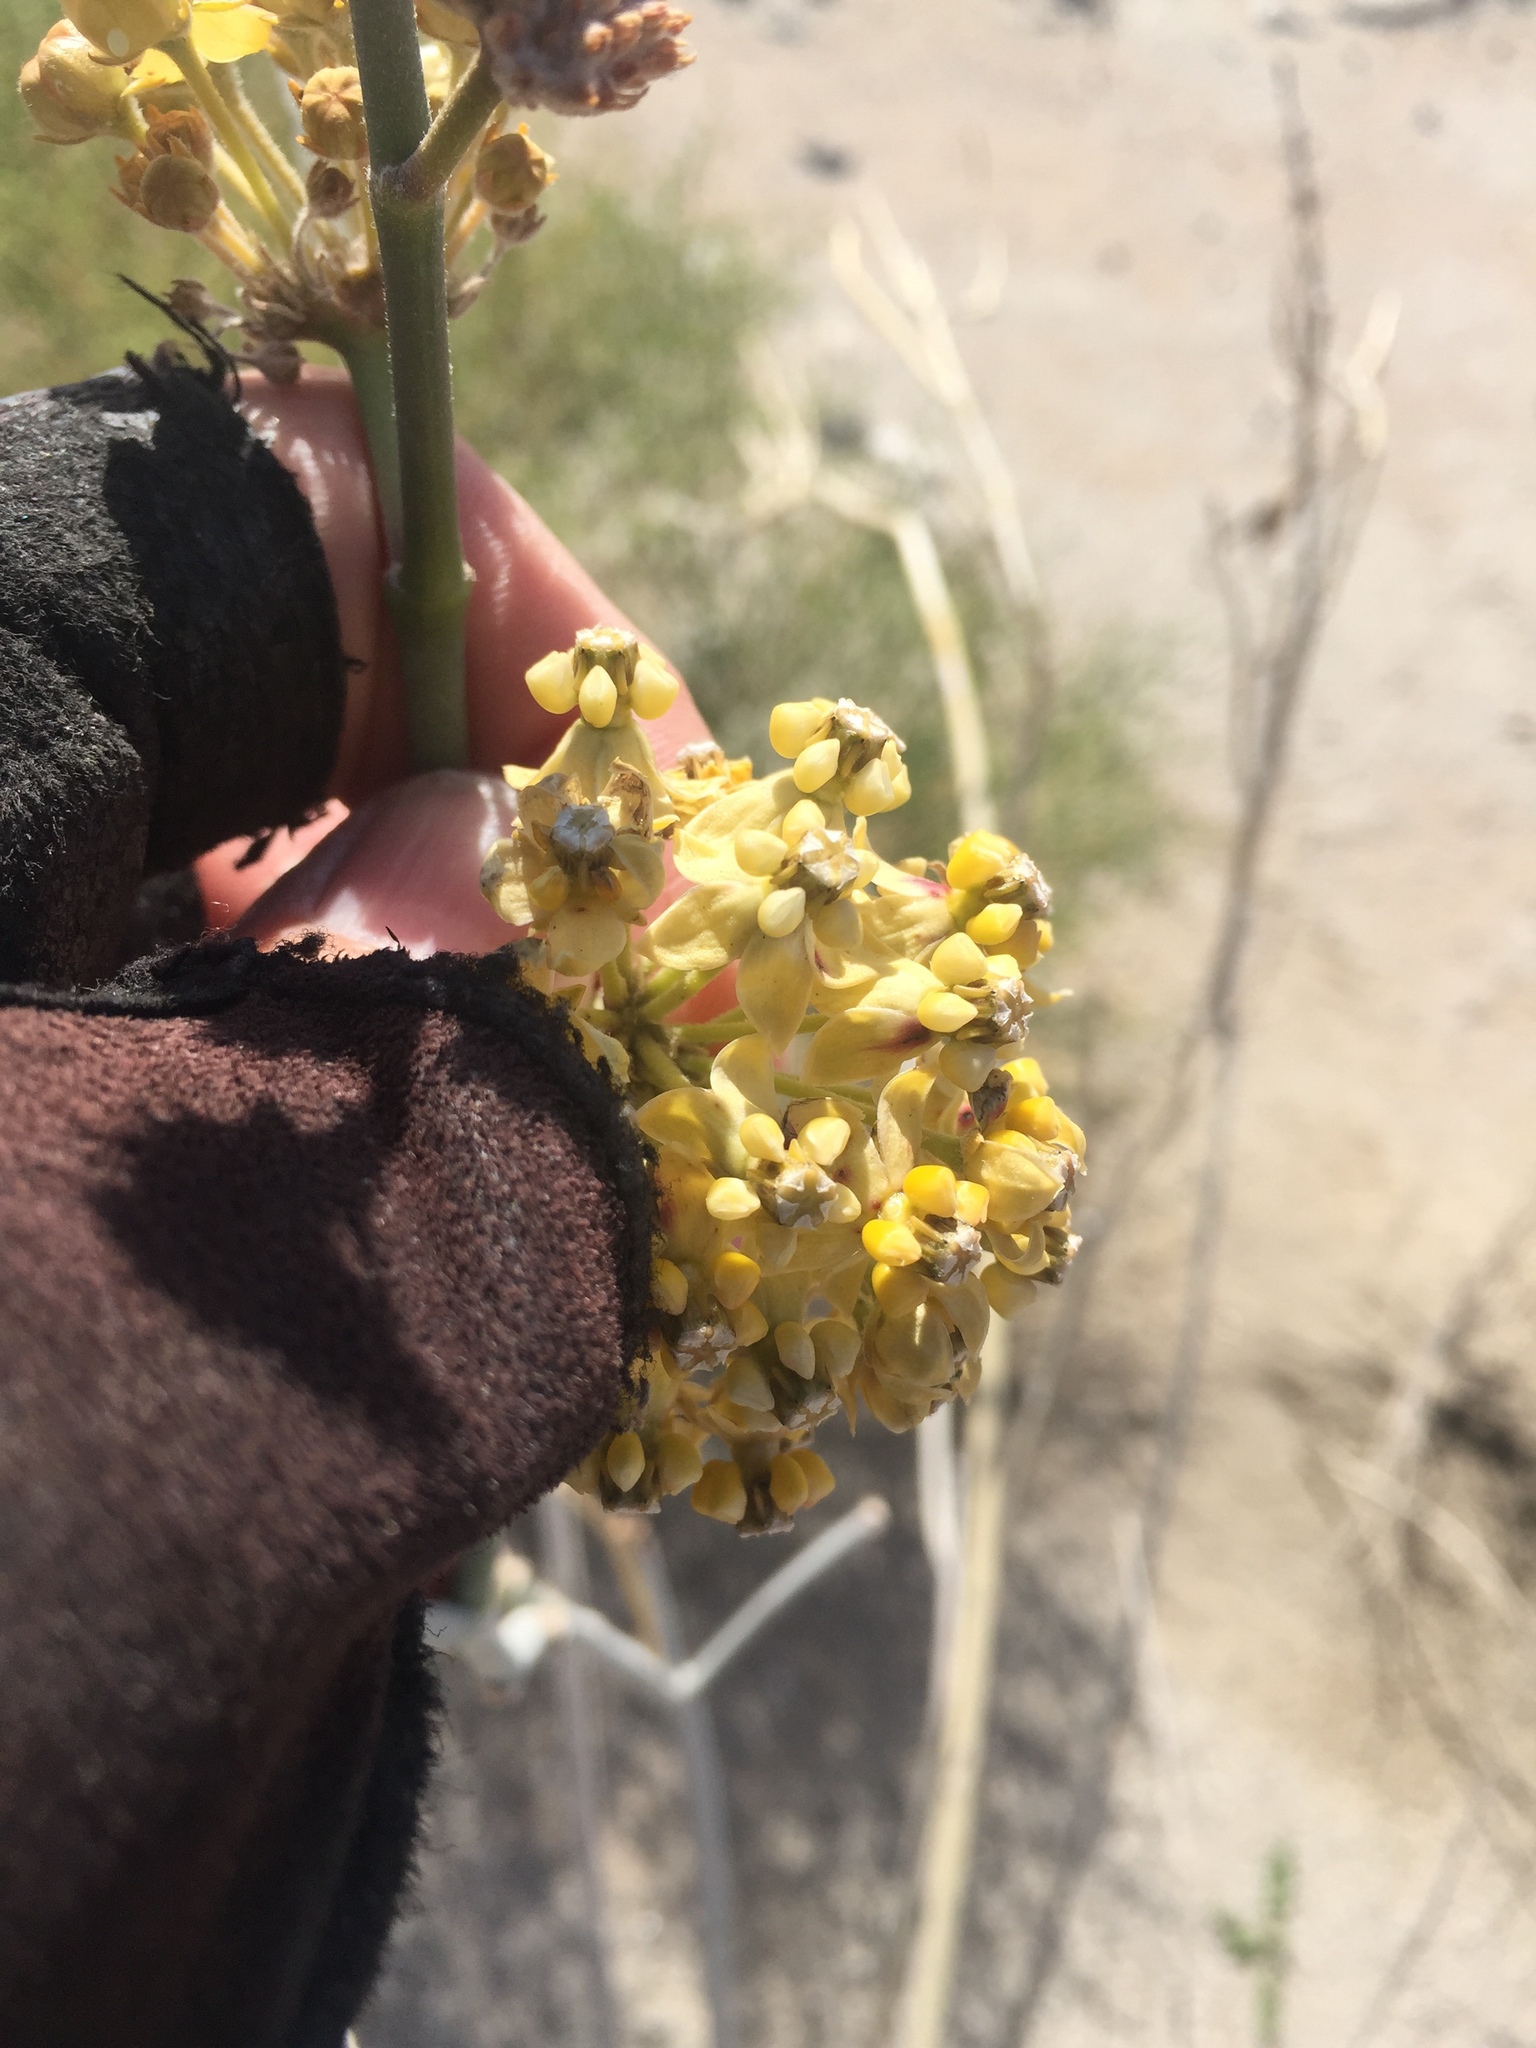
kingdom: Plantae
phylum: Tracheophyta
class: Magnoliopsida
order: Gentianales
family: Apocynaceae
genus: Asclepias
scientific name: Asclepias albicans
